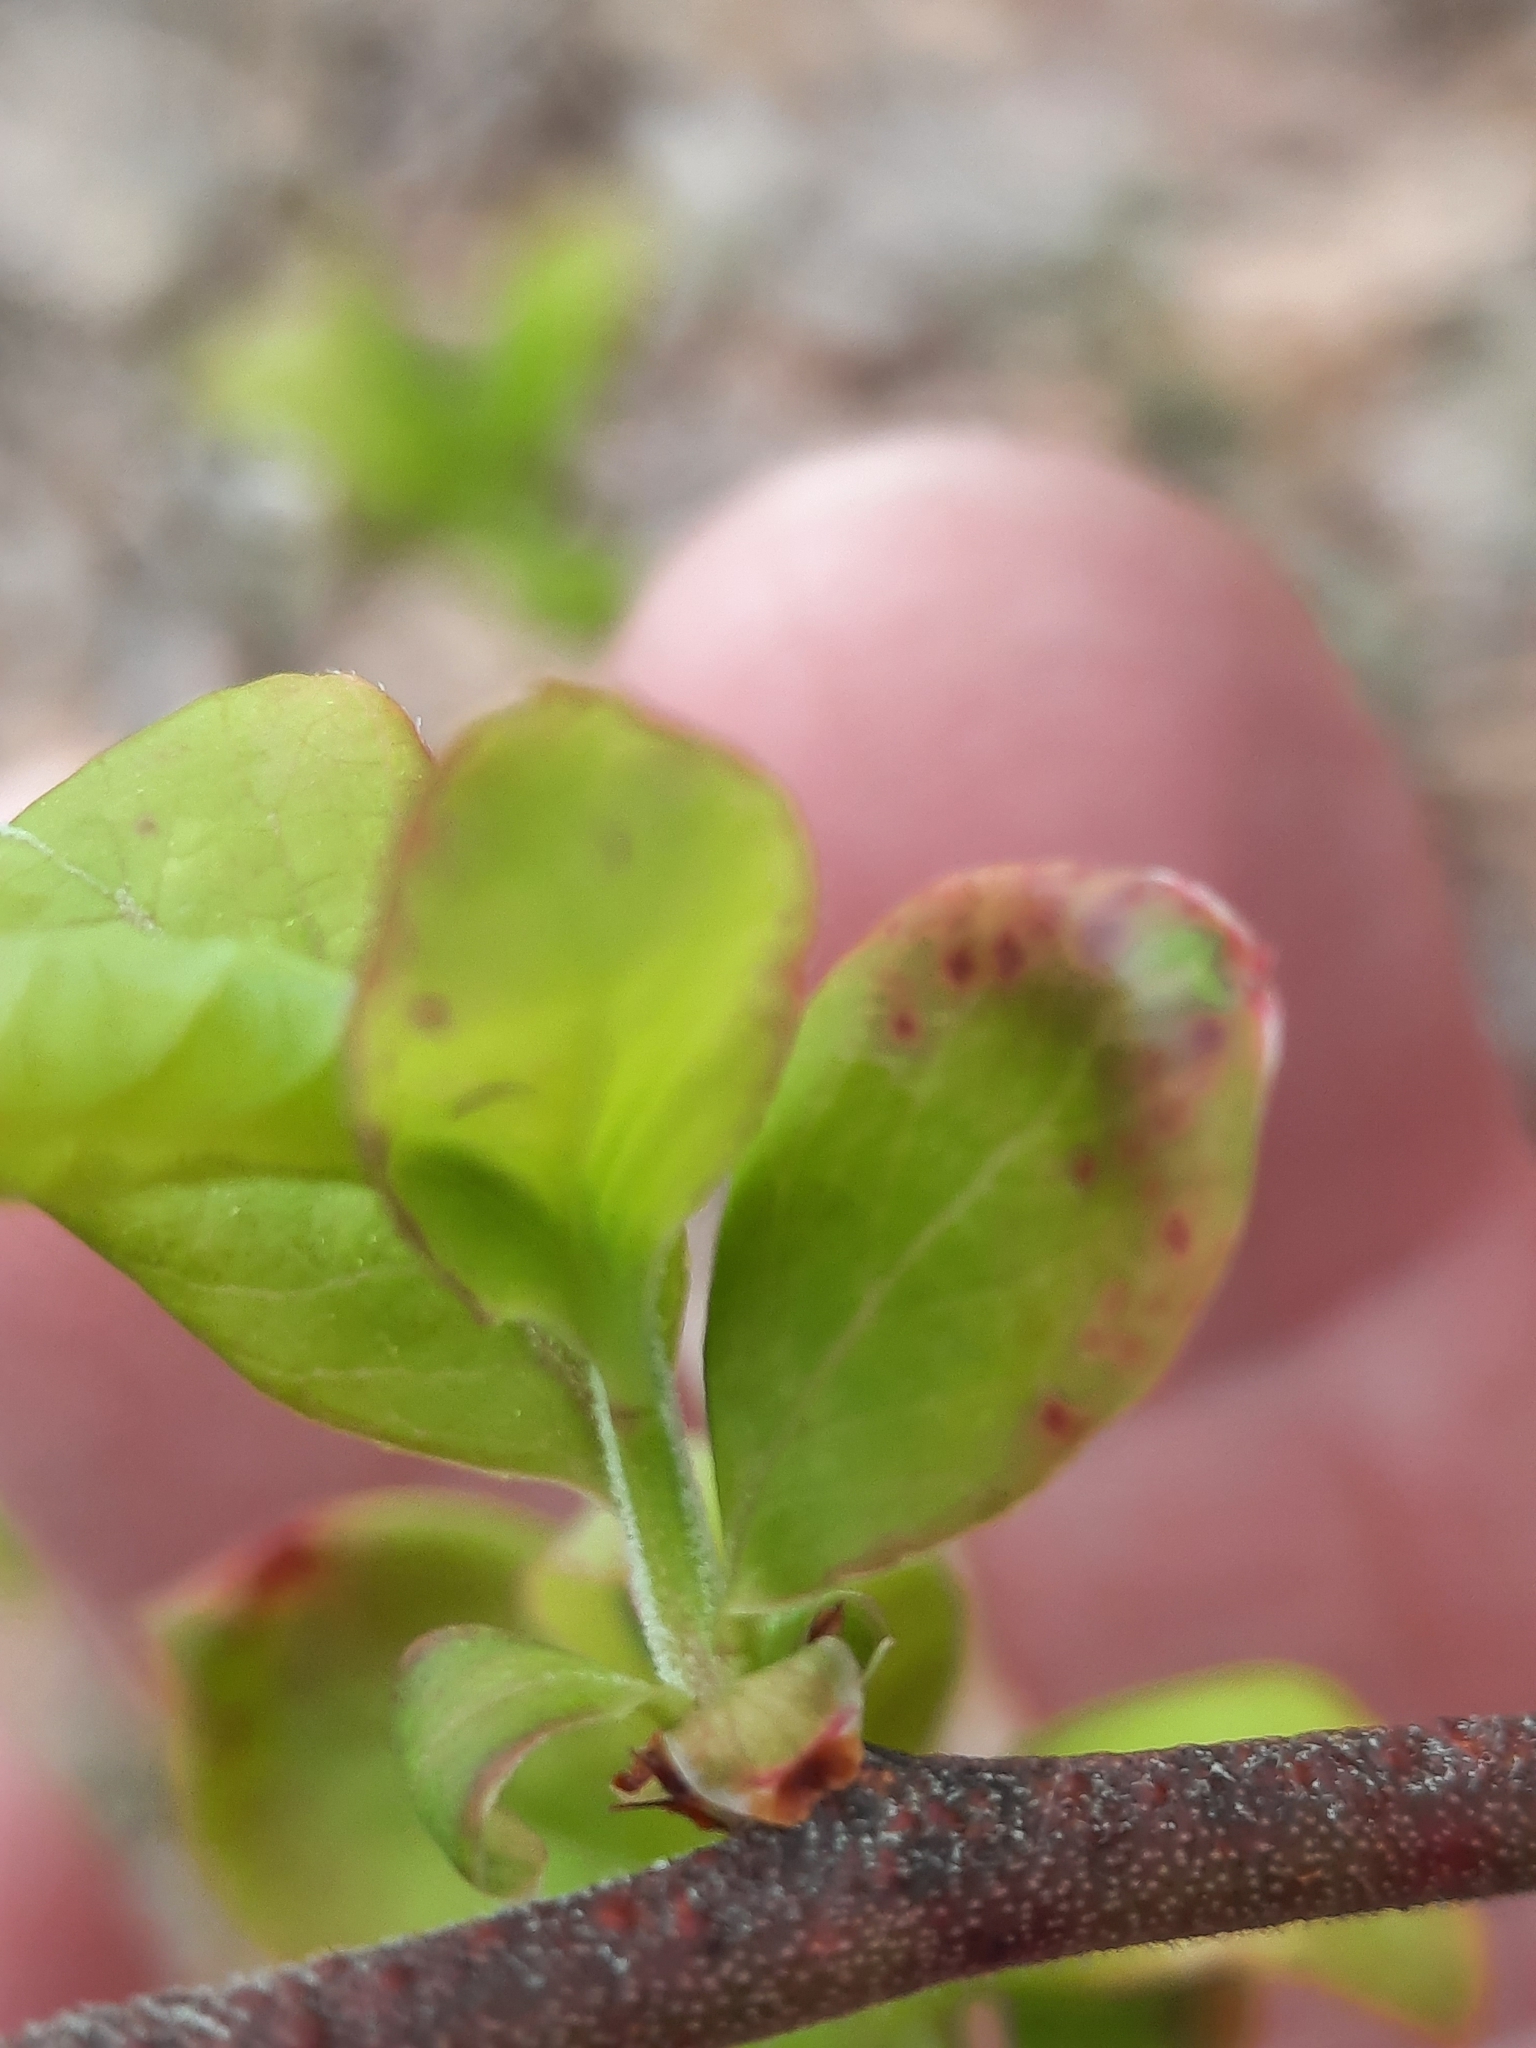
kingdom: Plantae
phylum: Tracheophyta
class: Magnoliopsida
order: Ericales
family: Ericaceae
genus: Vaccinium
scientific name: Vaccinium corymbosum
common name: Blueberry
